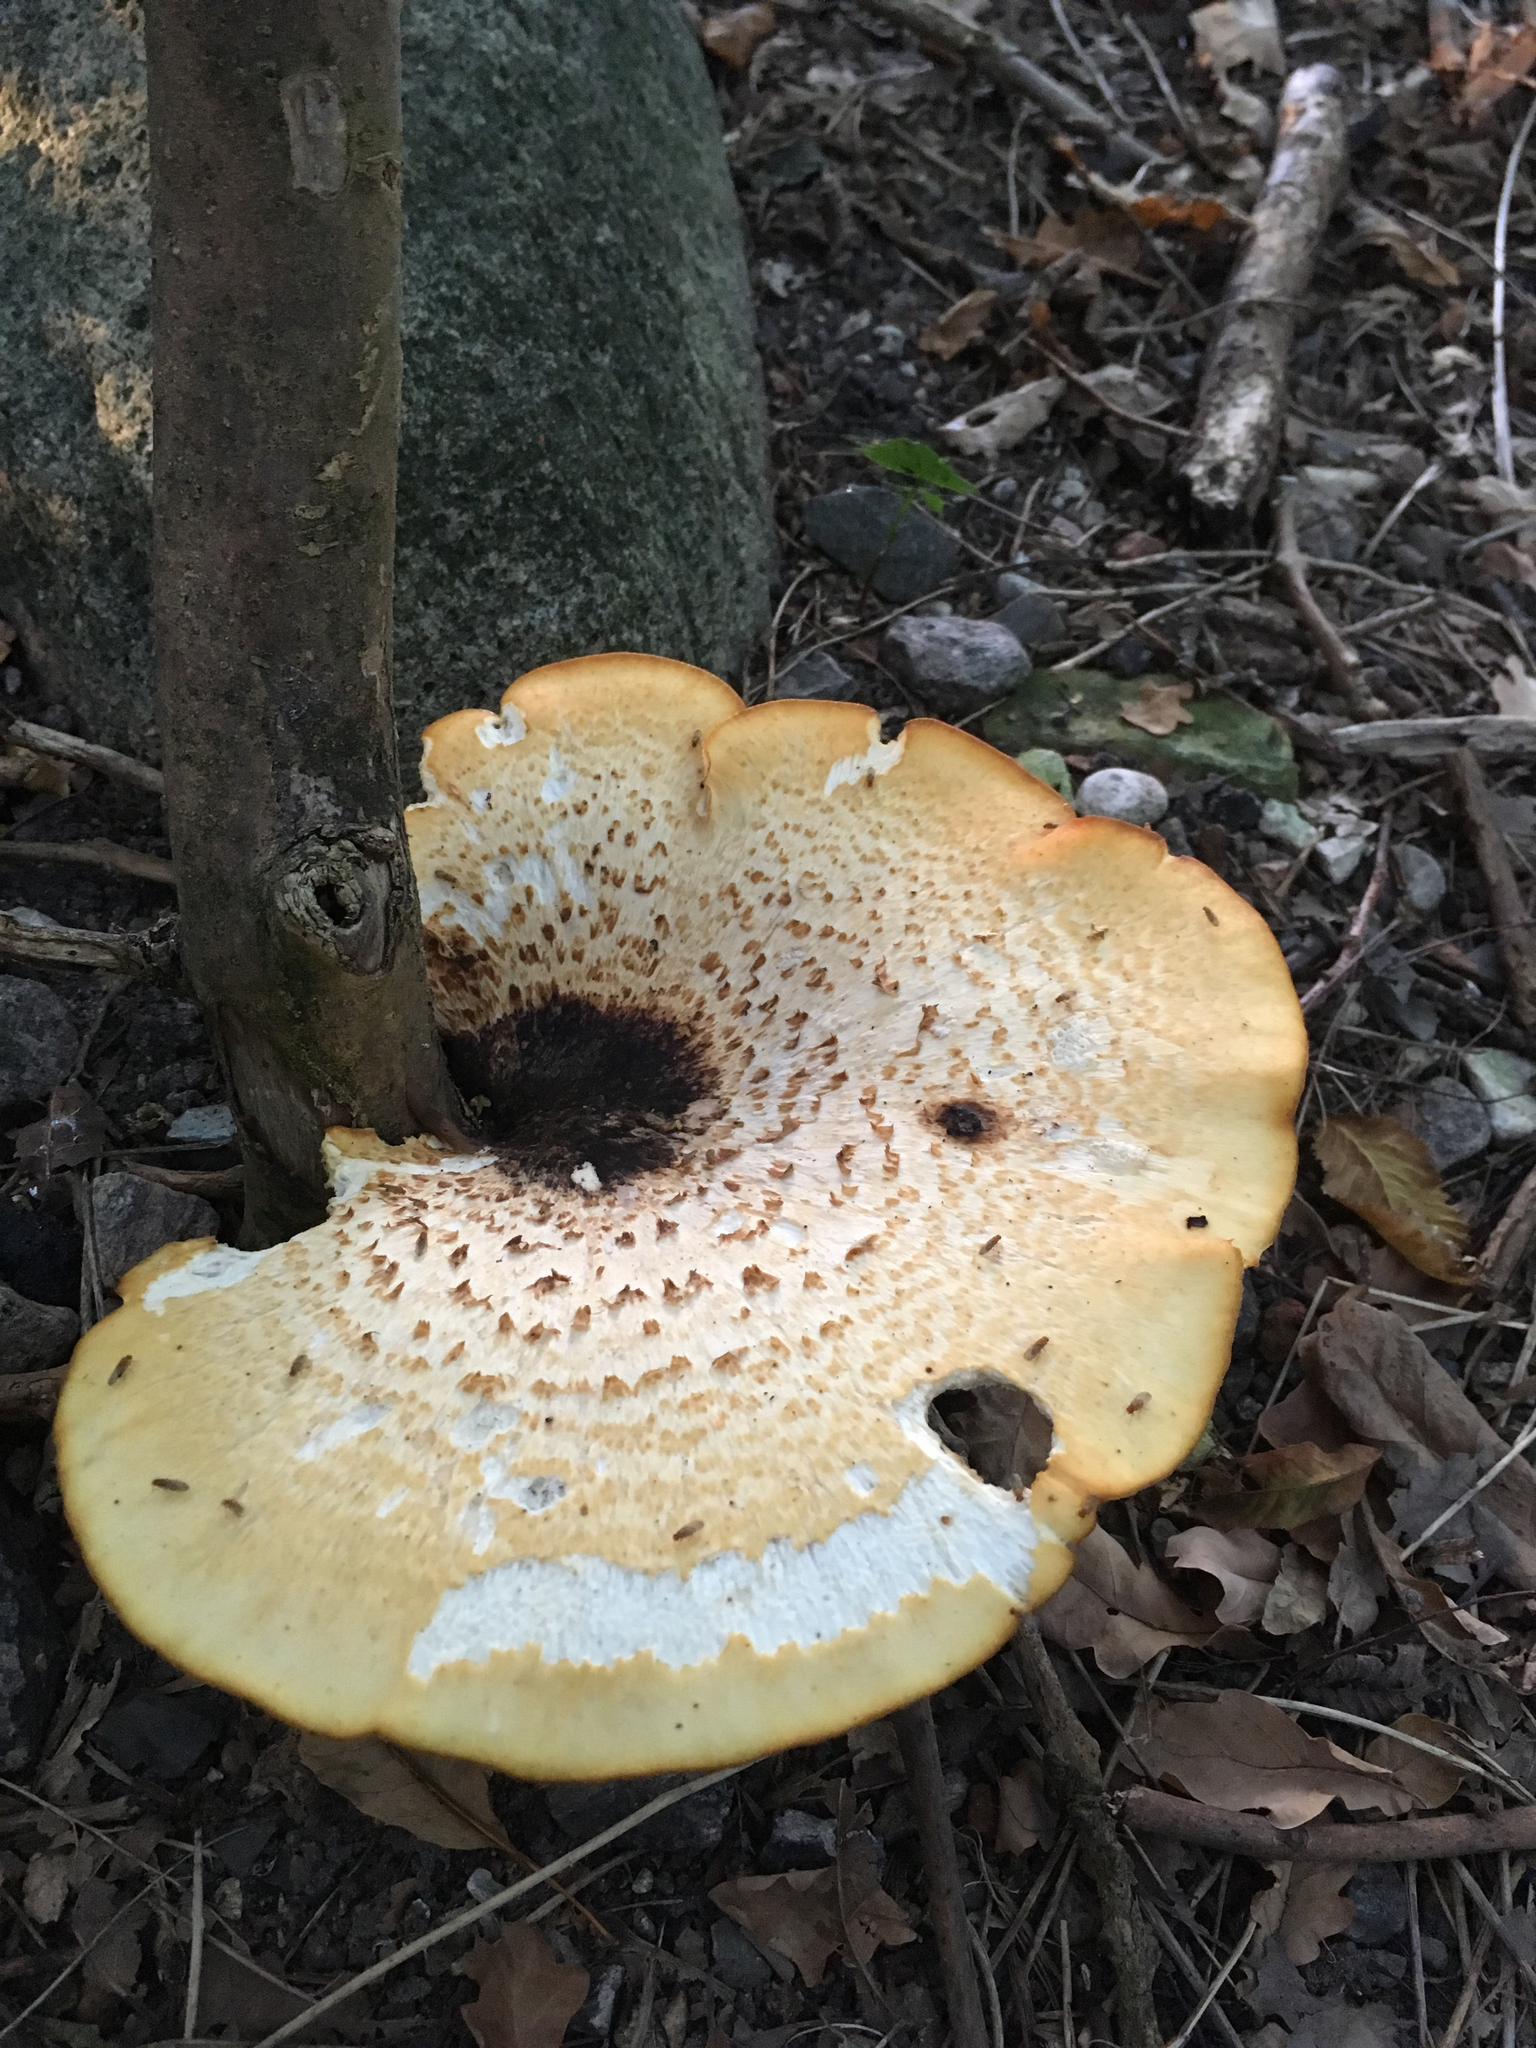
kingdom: Fungi
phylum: Basidiomycota
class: Agaricomycetes
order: Polyporales
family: Polyporaceae
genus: Cerioporus
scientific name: Cerioporus squamosus
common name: Dryad's saddle
